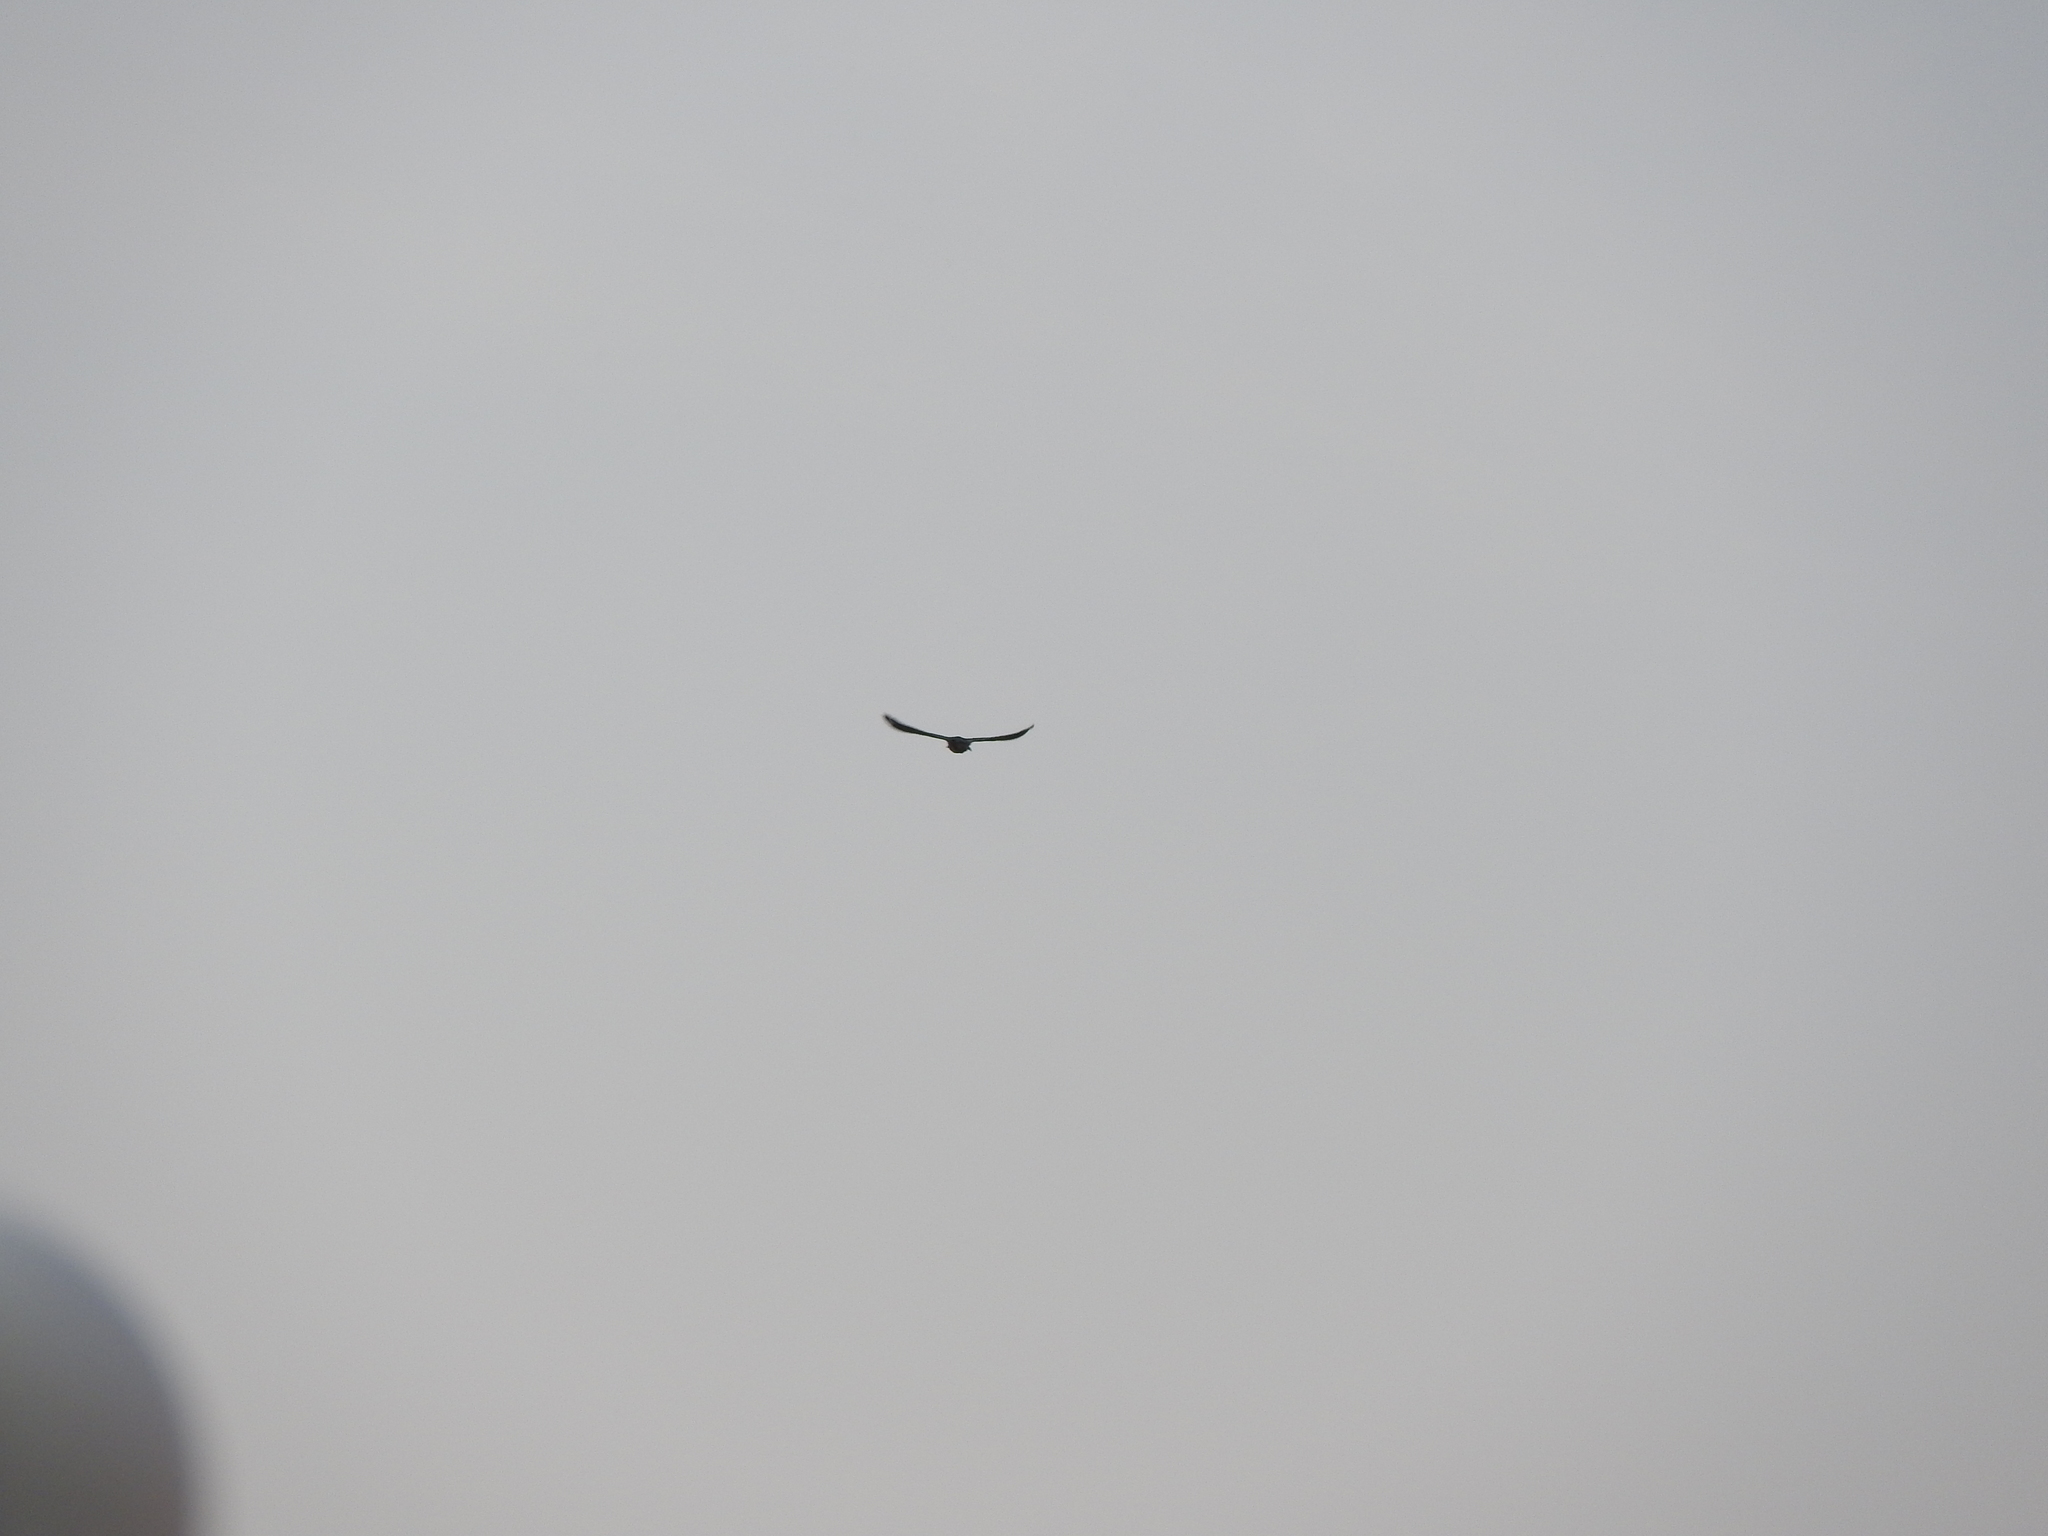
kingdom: Animalia
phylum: Chordata
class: Aves
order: Passeriformes
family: Icteridae
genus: Quiscalus
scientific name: Quiscalus mexicanus
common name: Great-tailed grackle
